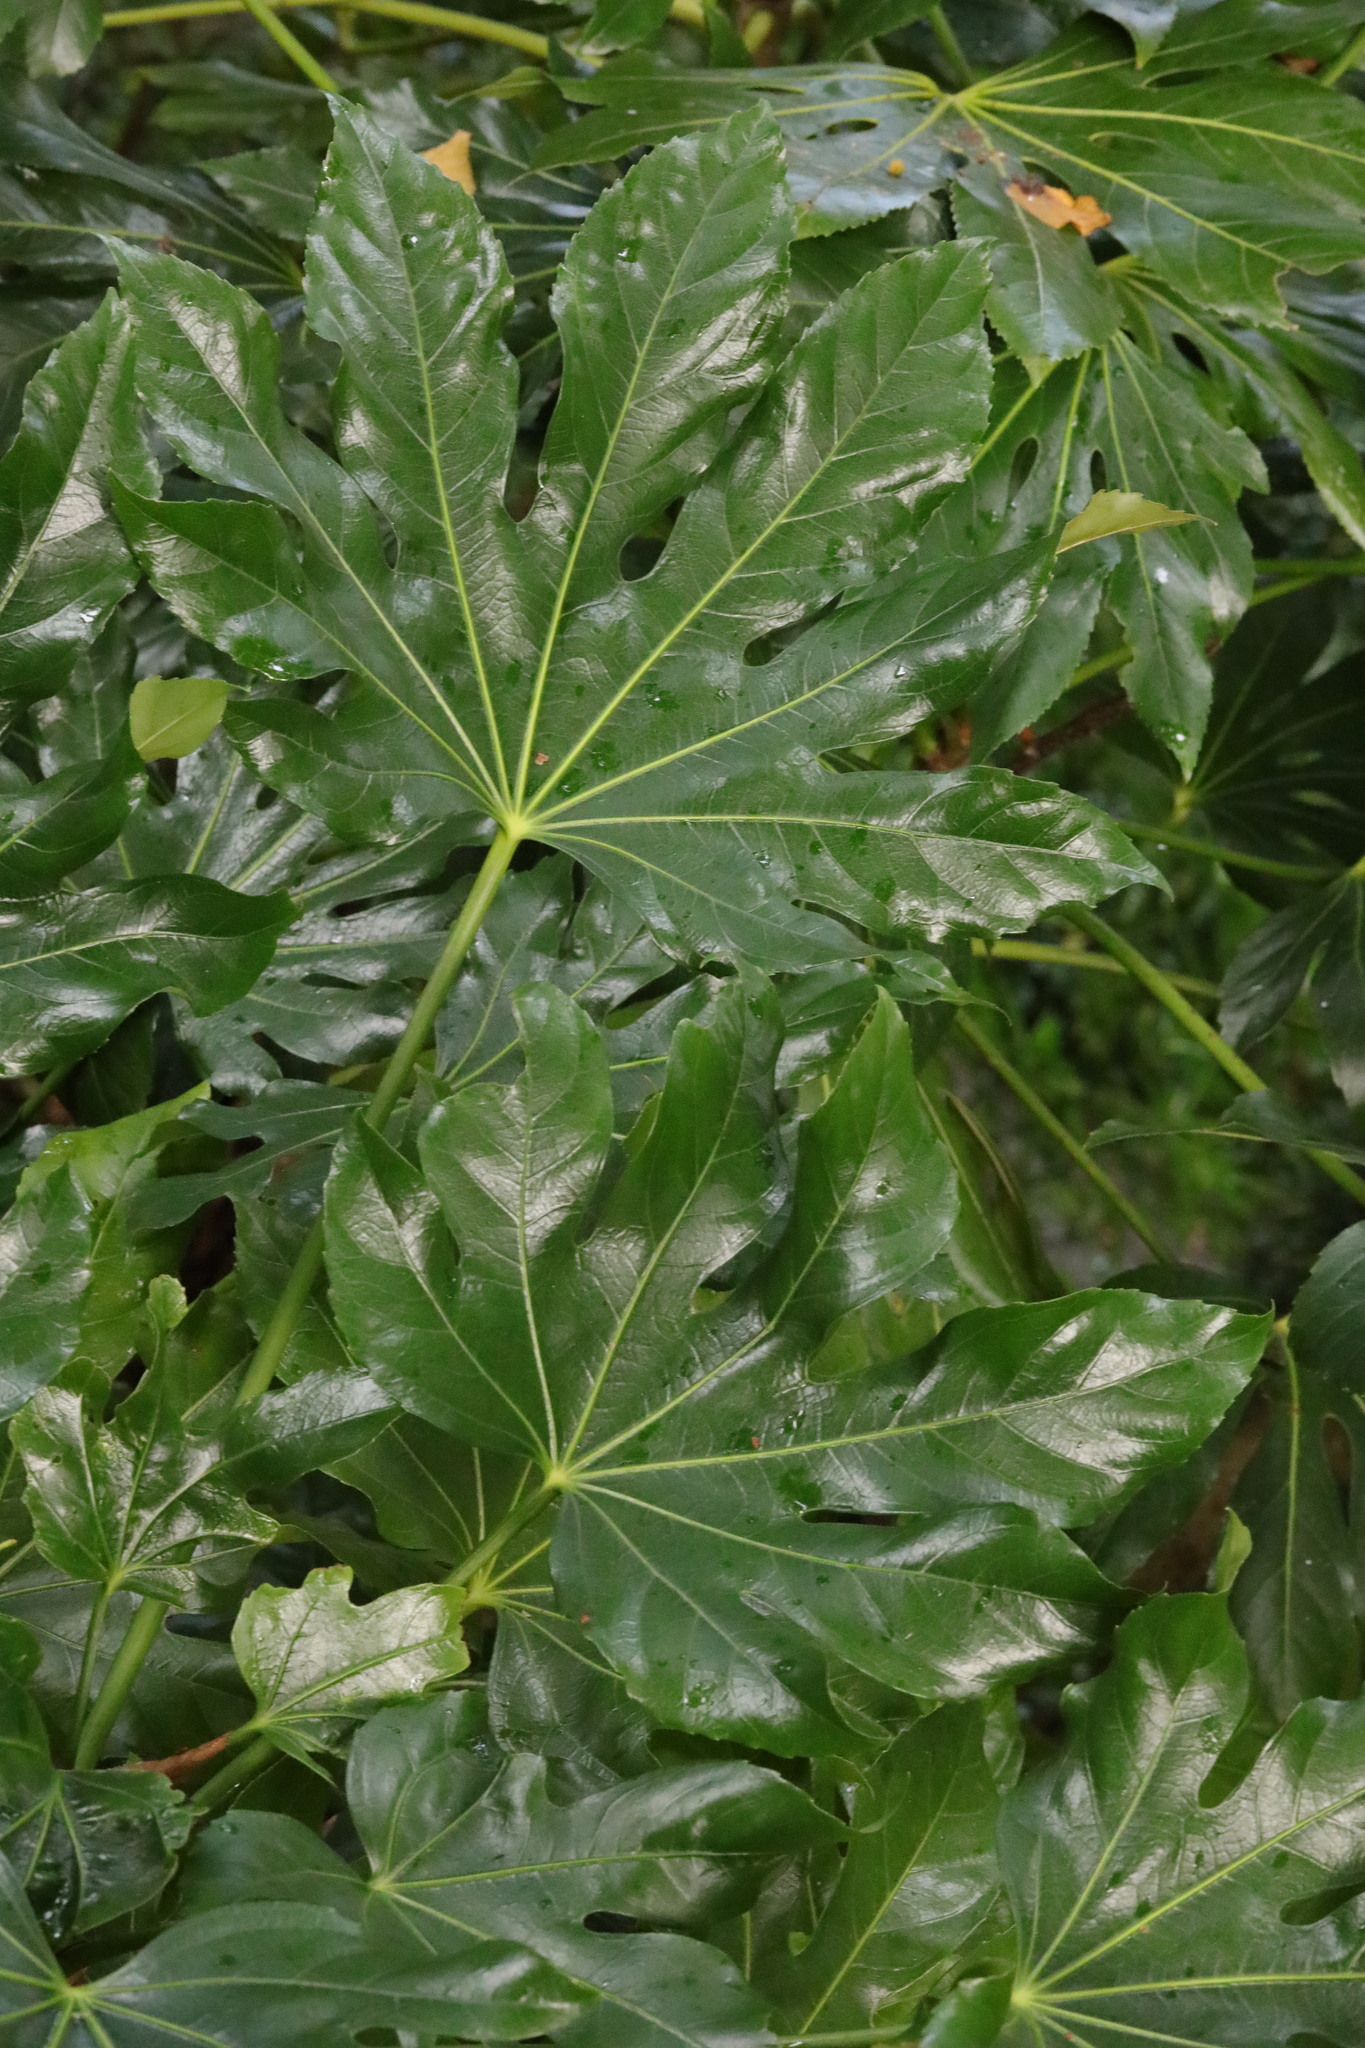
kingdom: Plantae
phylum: Tracheophyta
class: Magnoliopsida
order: Apiales
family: Araliaceae
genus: Fatsia
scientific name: Fatsia japonica
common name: Fatsia
